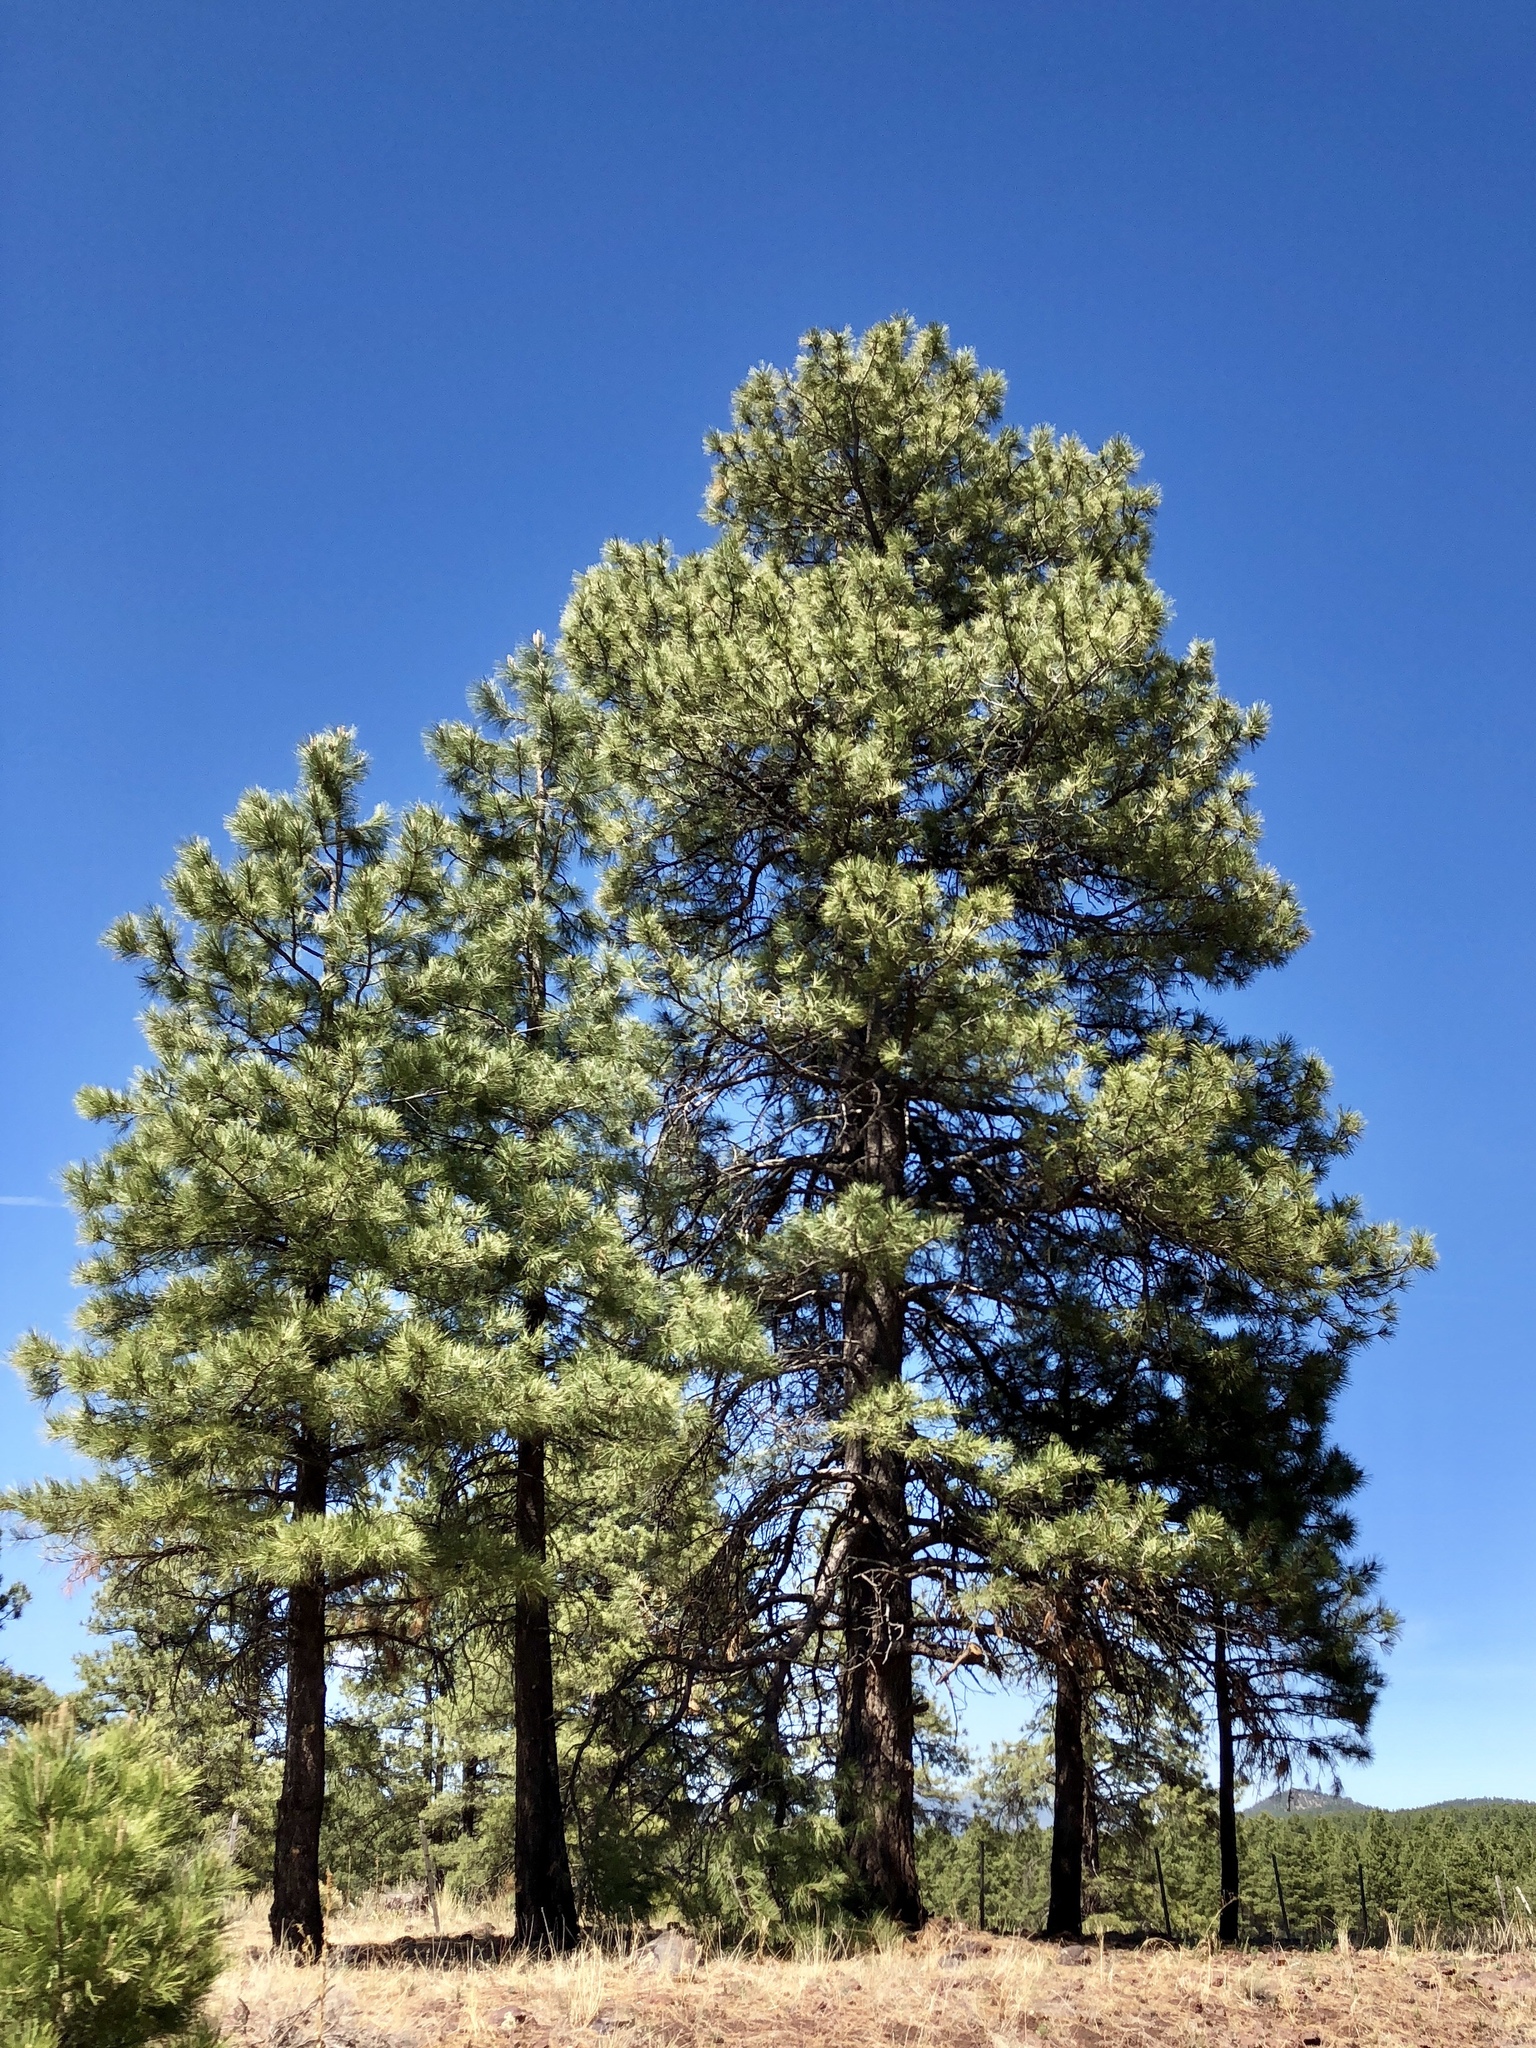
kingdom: Plantae
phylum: Tracheophyta
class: Pinopsida
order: Pinales
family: Pinaceae
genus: Pinus
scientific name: Pinus ponderosa
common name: Western yellow-pine
